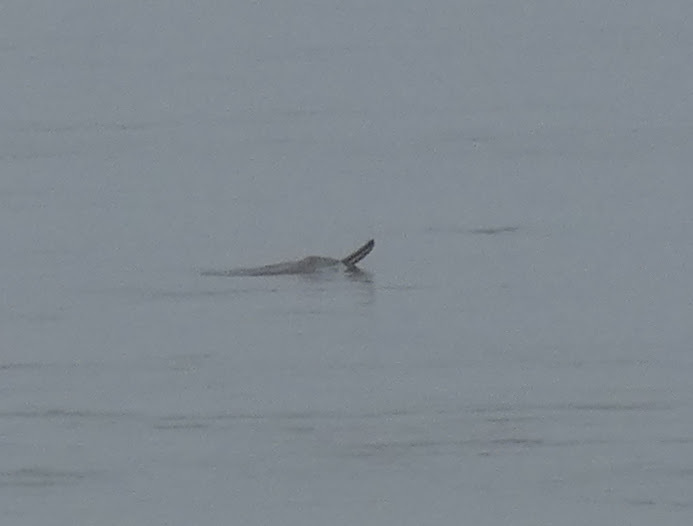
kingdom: Animalia
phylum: Chordata
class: Mammalia
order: Cetacea
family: Platanistidae
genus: Platanista
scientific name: Platanista gangetica
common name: Ganges river dolphin
